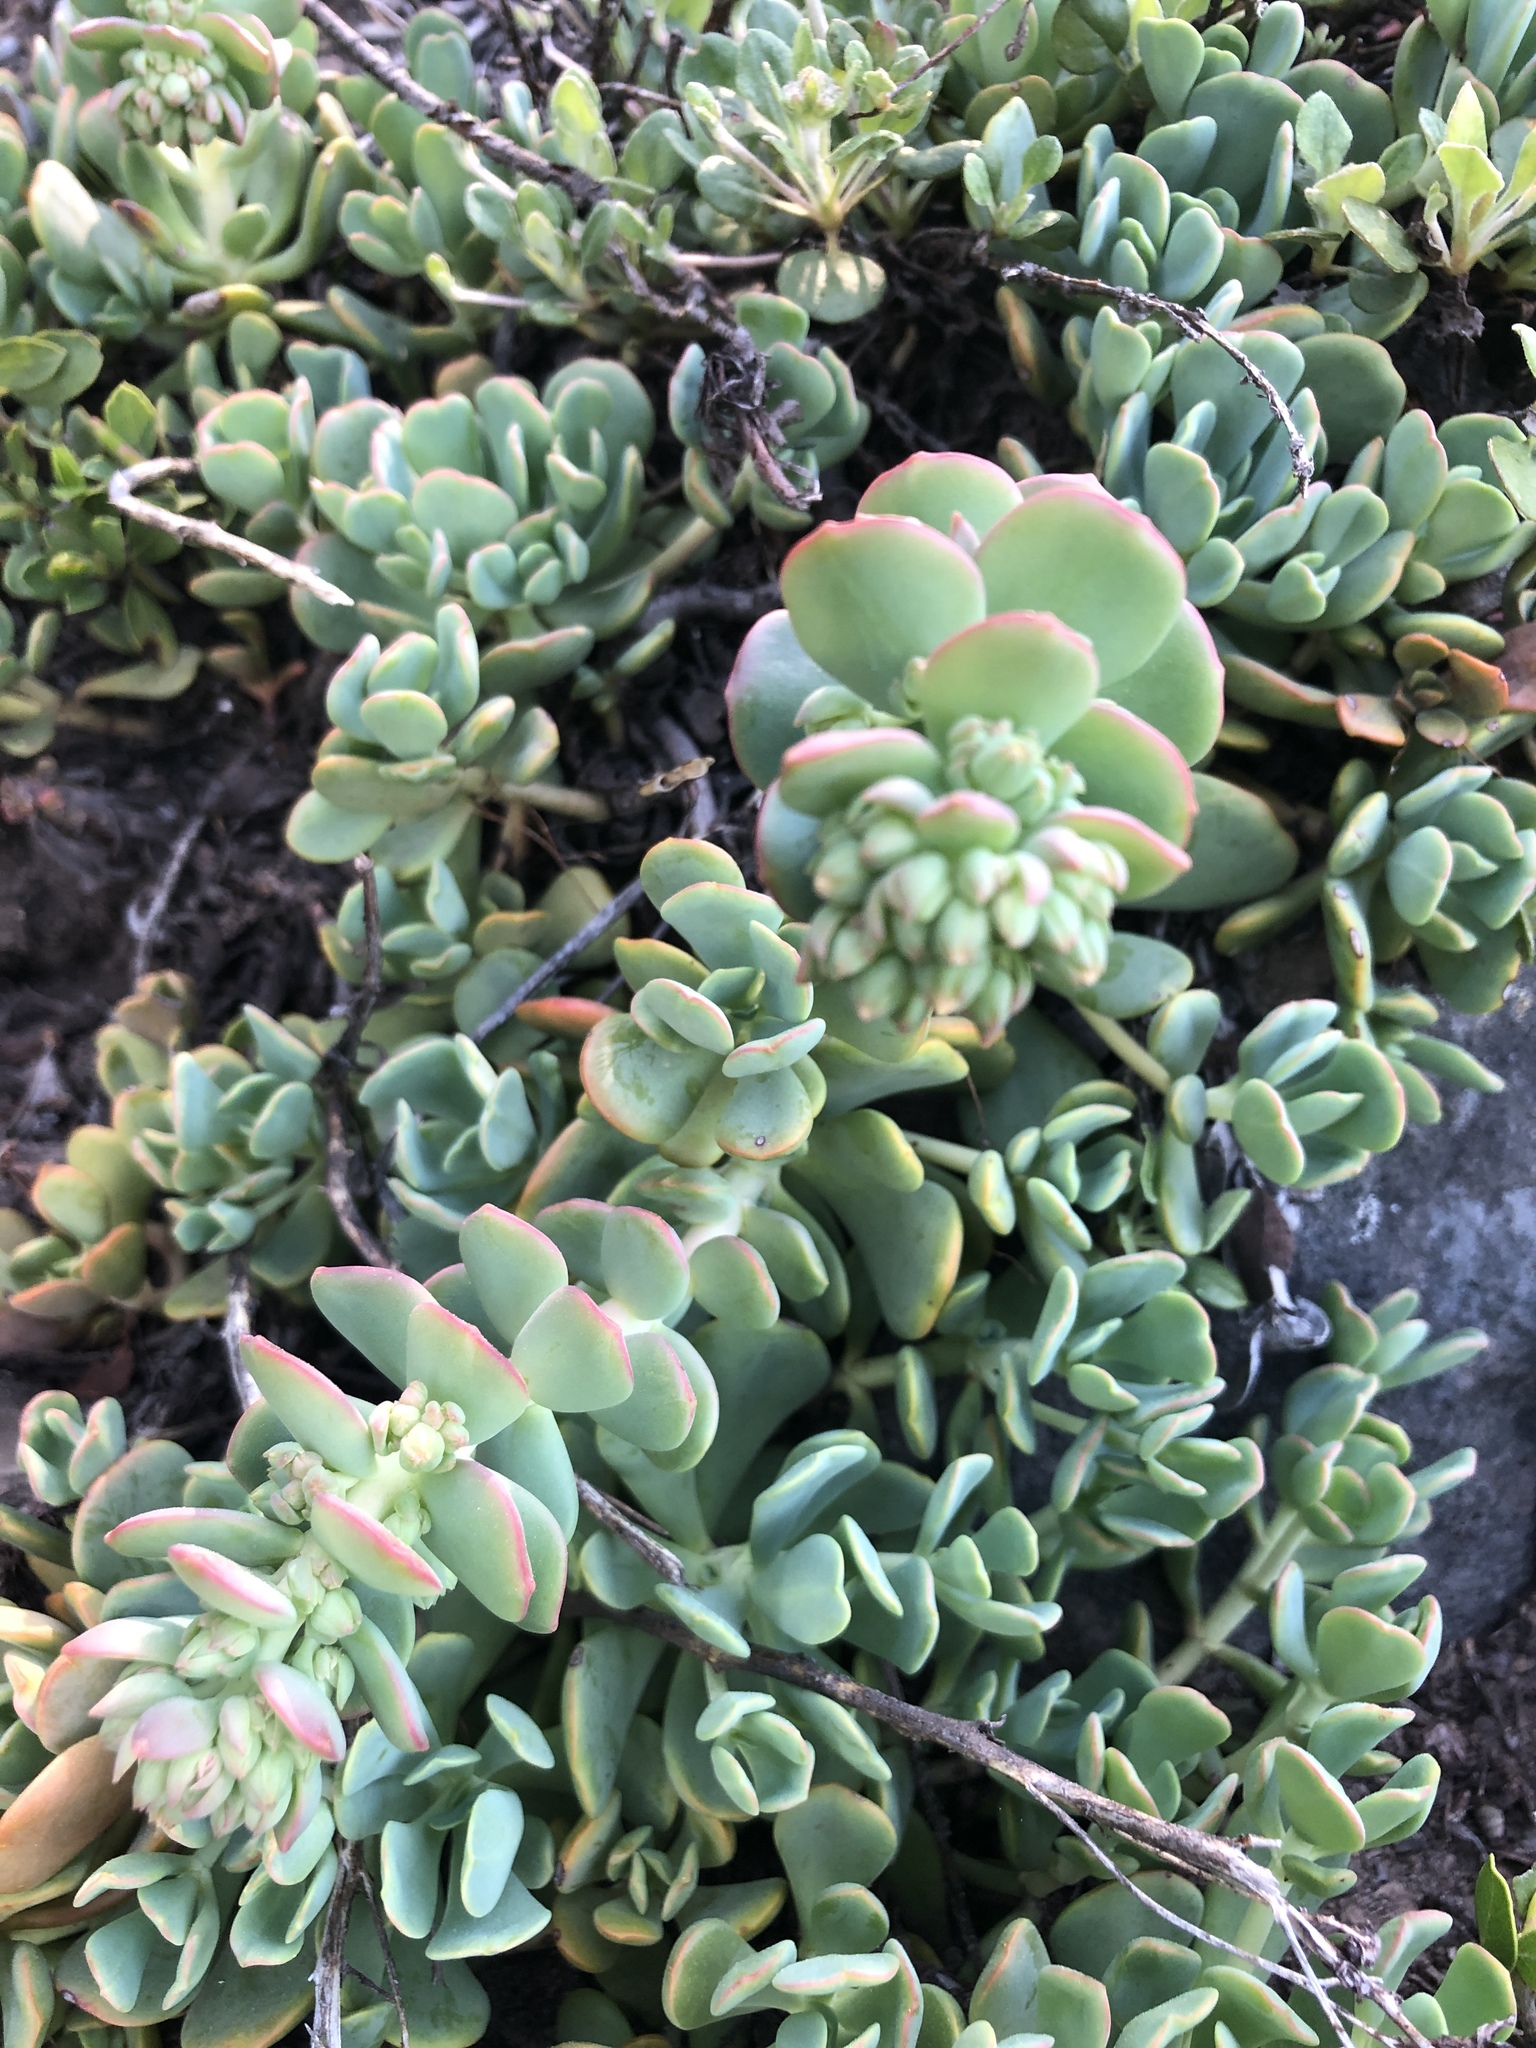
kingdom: Plantae
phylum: Tracheophyta
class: Magnoliopsida
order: Saxifragales
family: Crassulaceae
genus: Sedum
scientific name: Sedum oregonense
